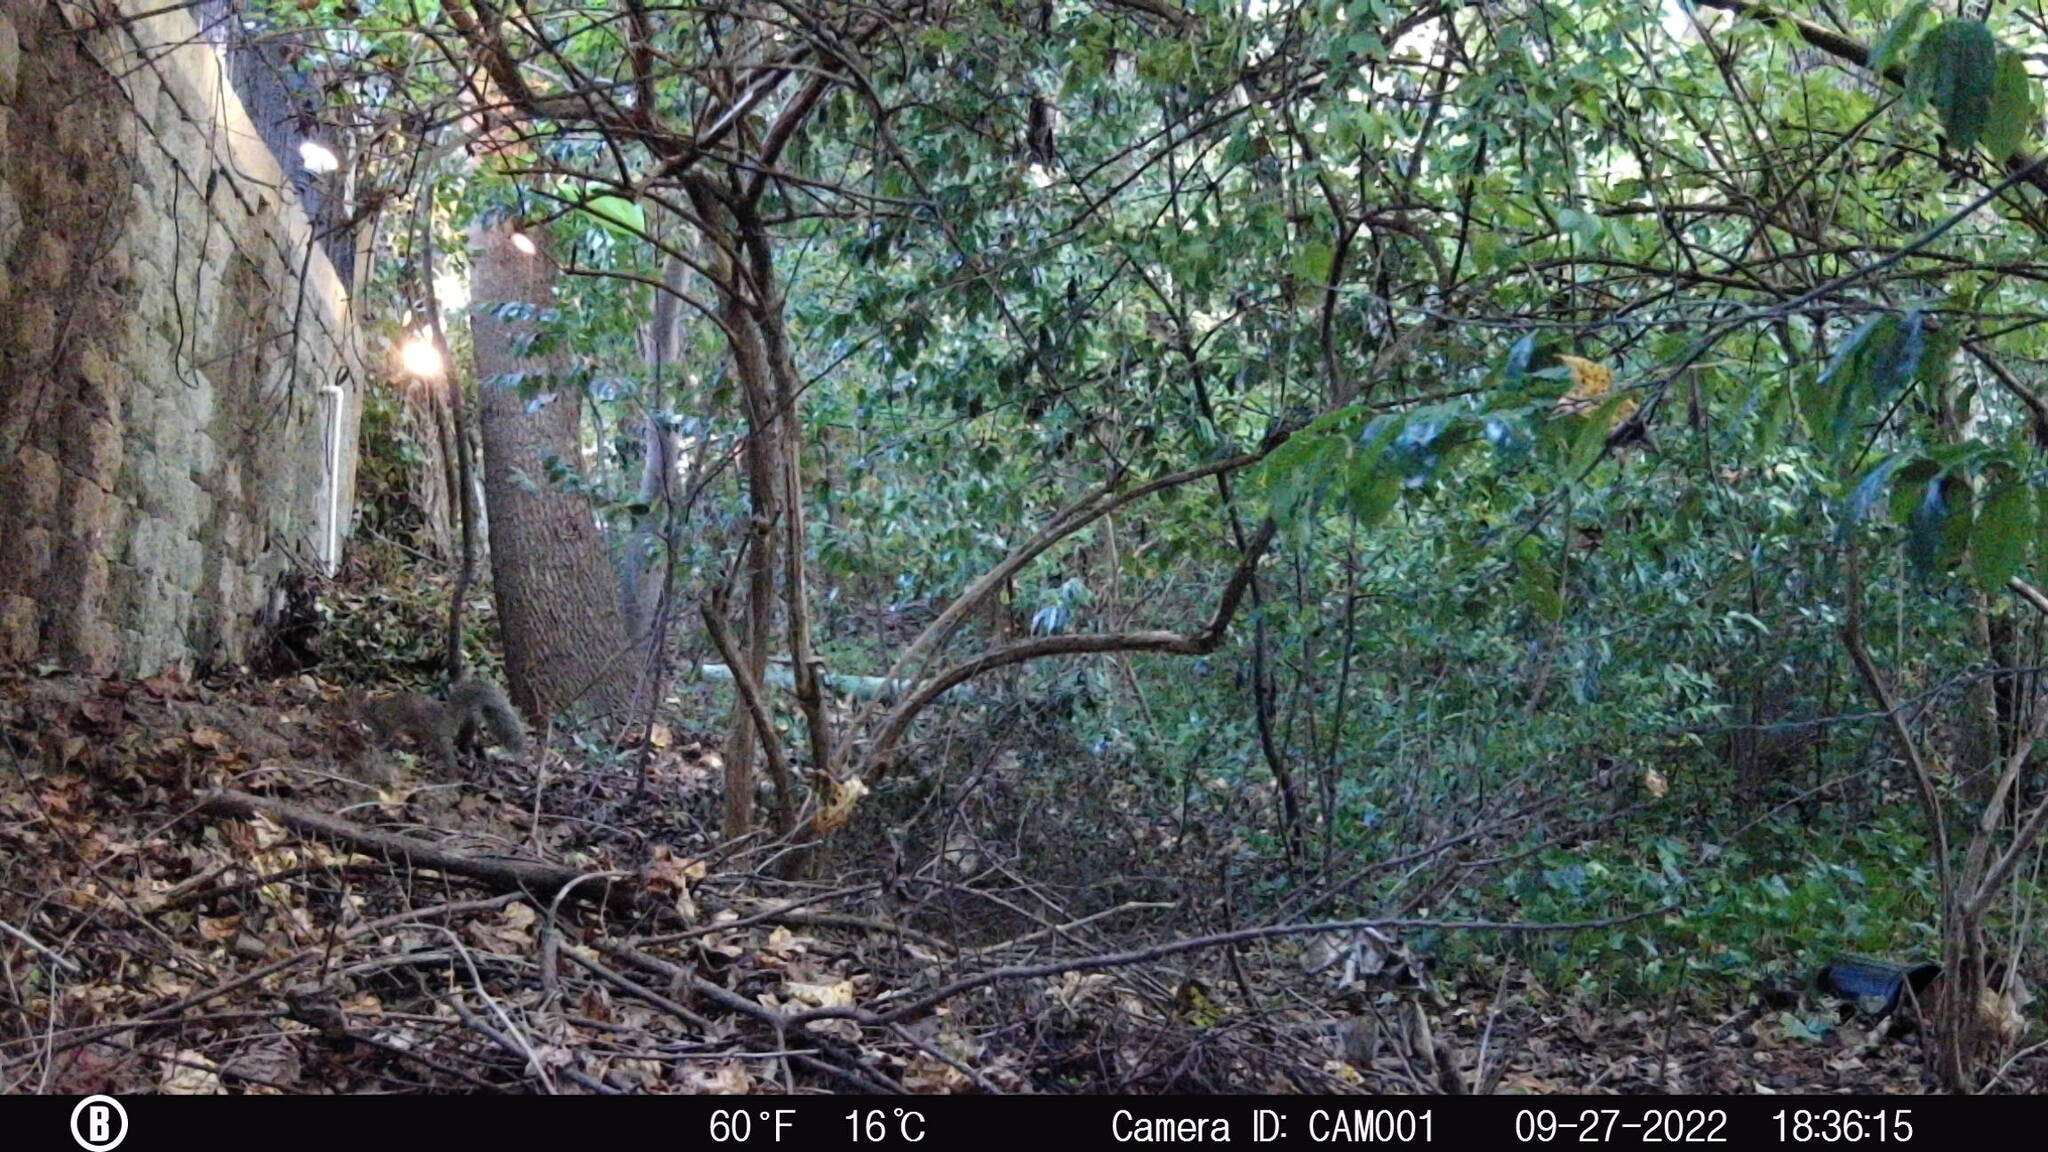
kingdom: Animalia
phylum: Chordata
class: Mammalia
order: Rodentia
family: Sciuridae
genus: Sciurus
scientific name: Sciurus carolinensis
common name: Eastern gray squirrel
